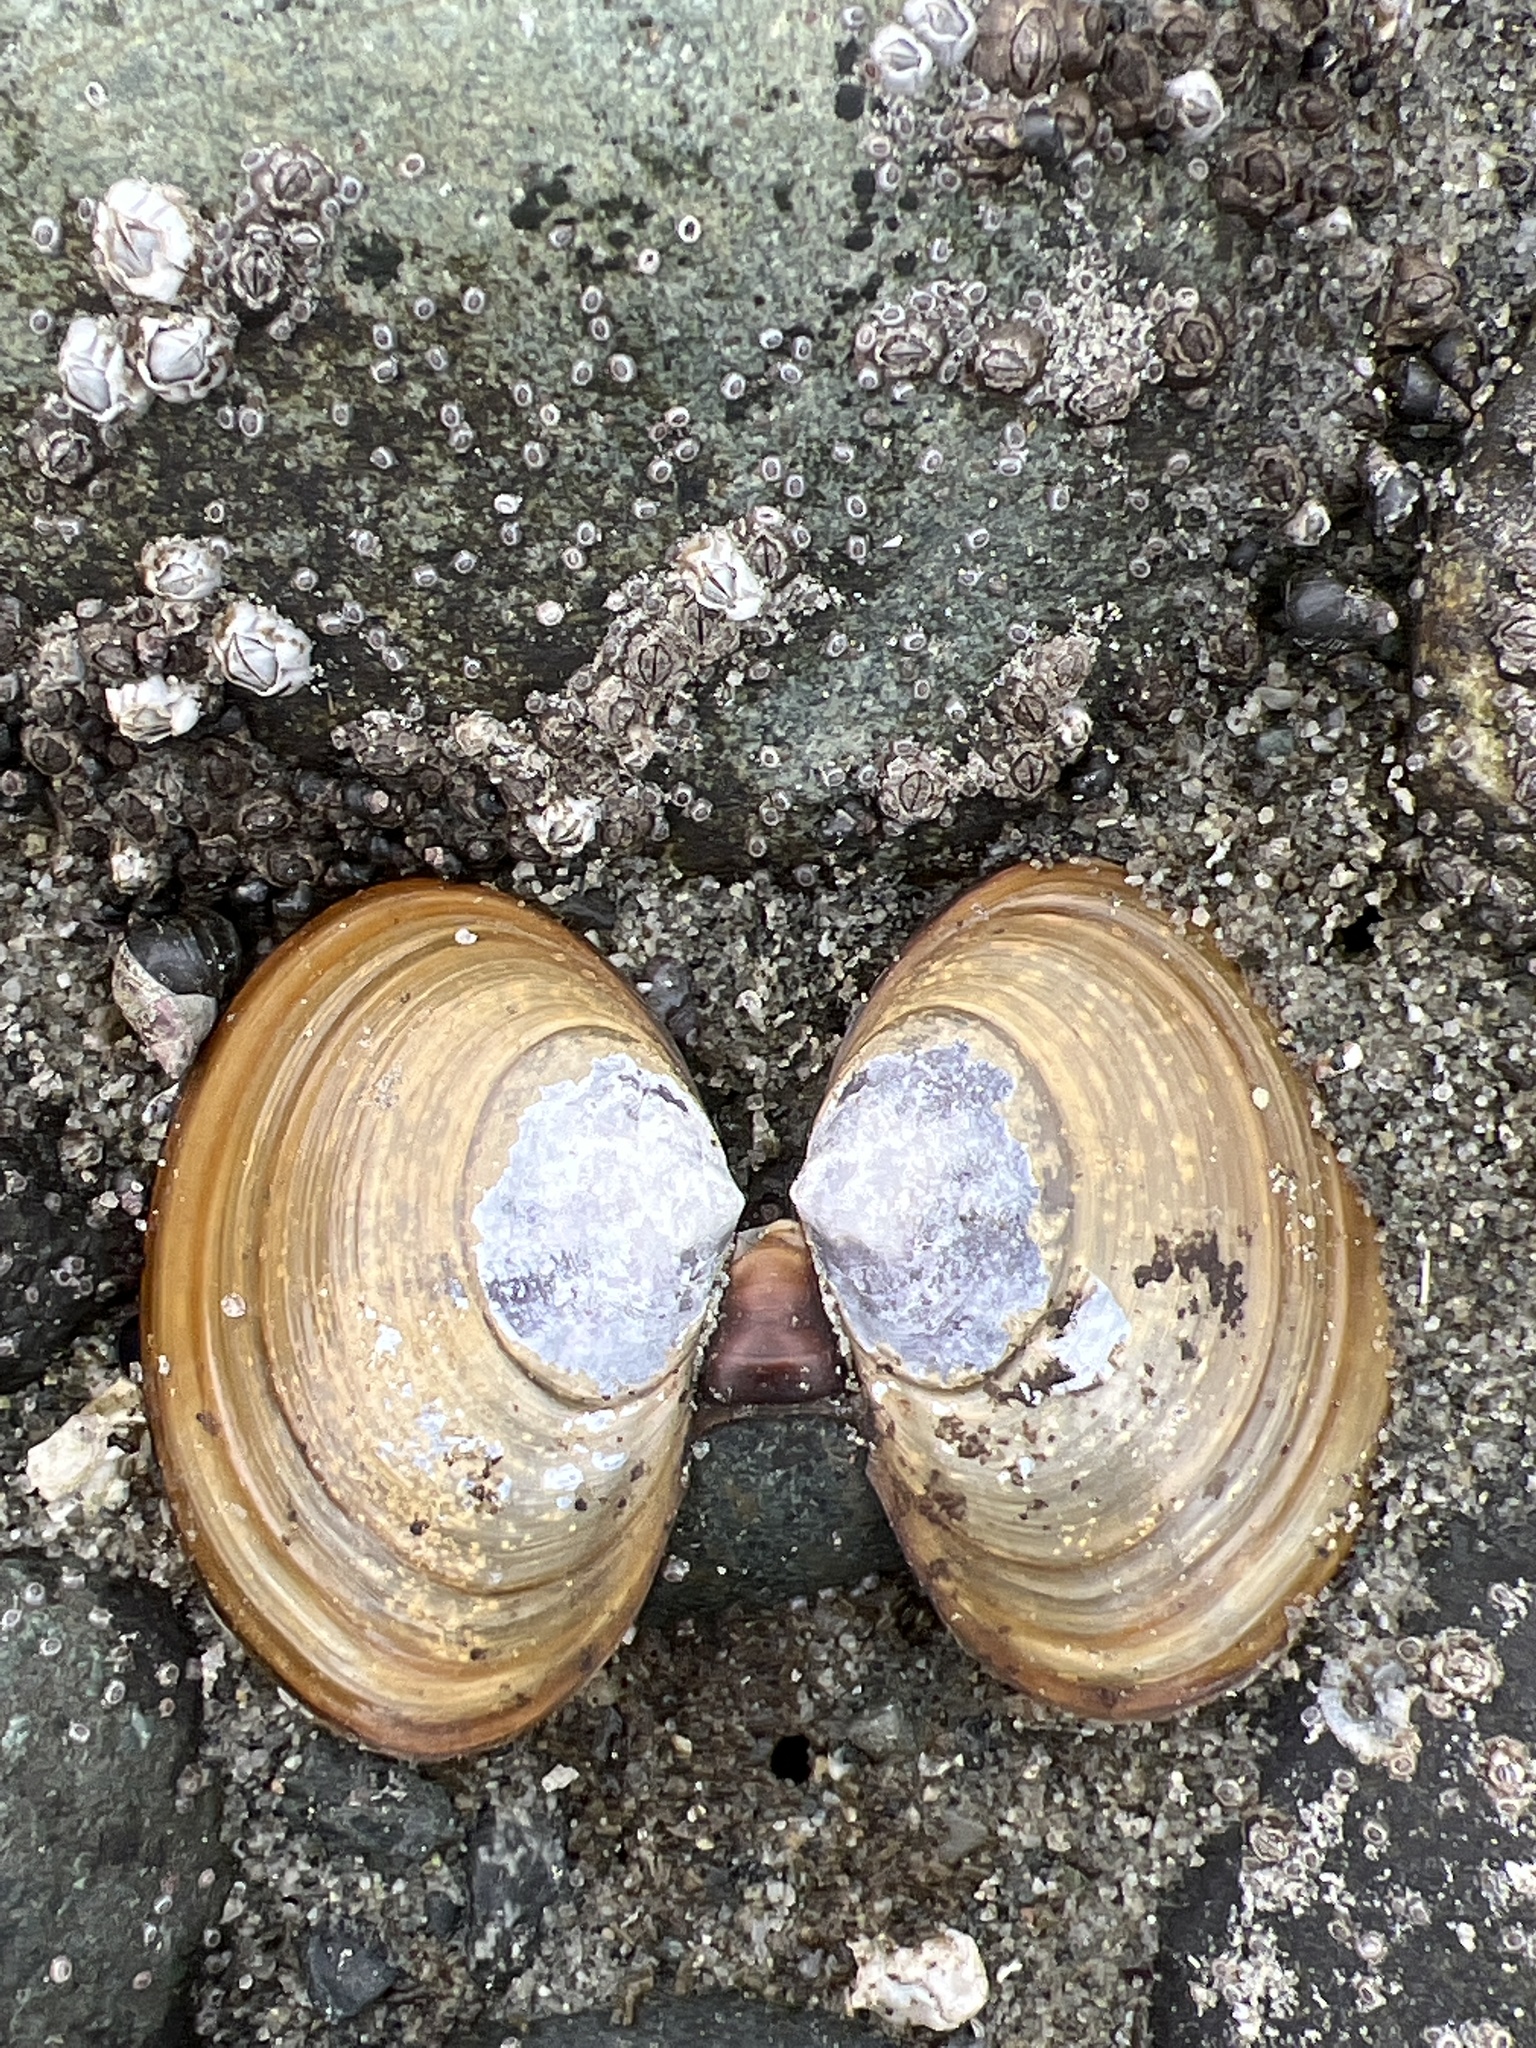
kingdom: Animalia
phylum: Mollusca
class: Bivalvia
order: Cardiida
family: Psammobiidae
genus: Nuttallia
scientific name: Nuttallia obscurata
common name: Purple mahogany-clam
